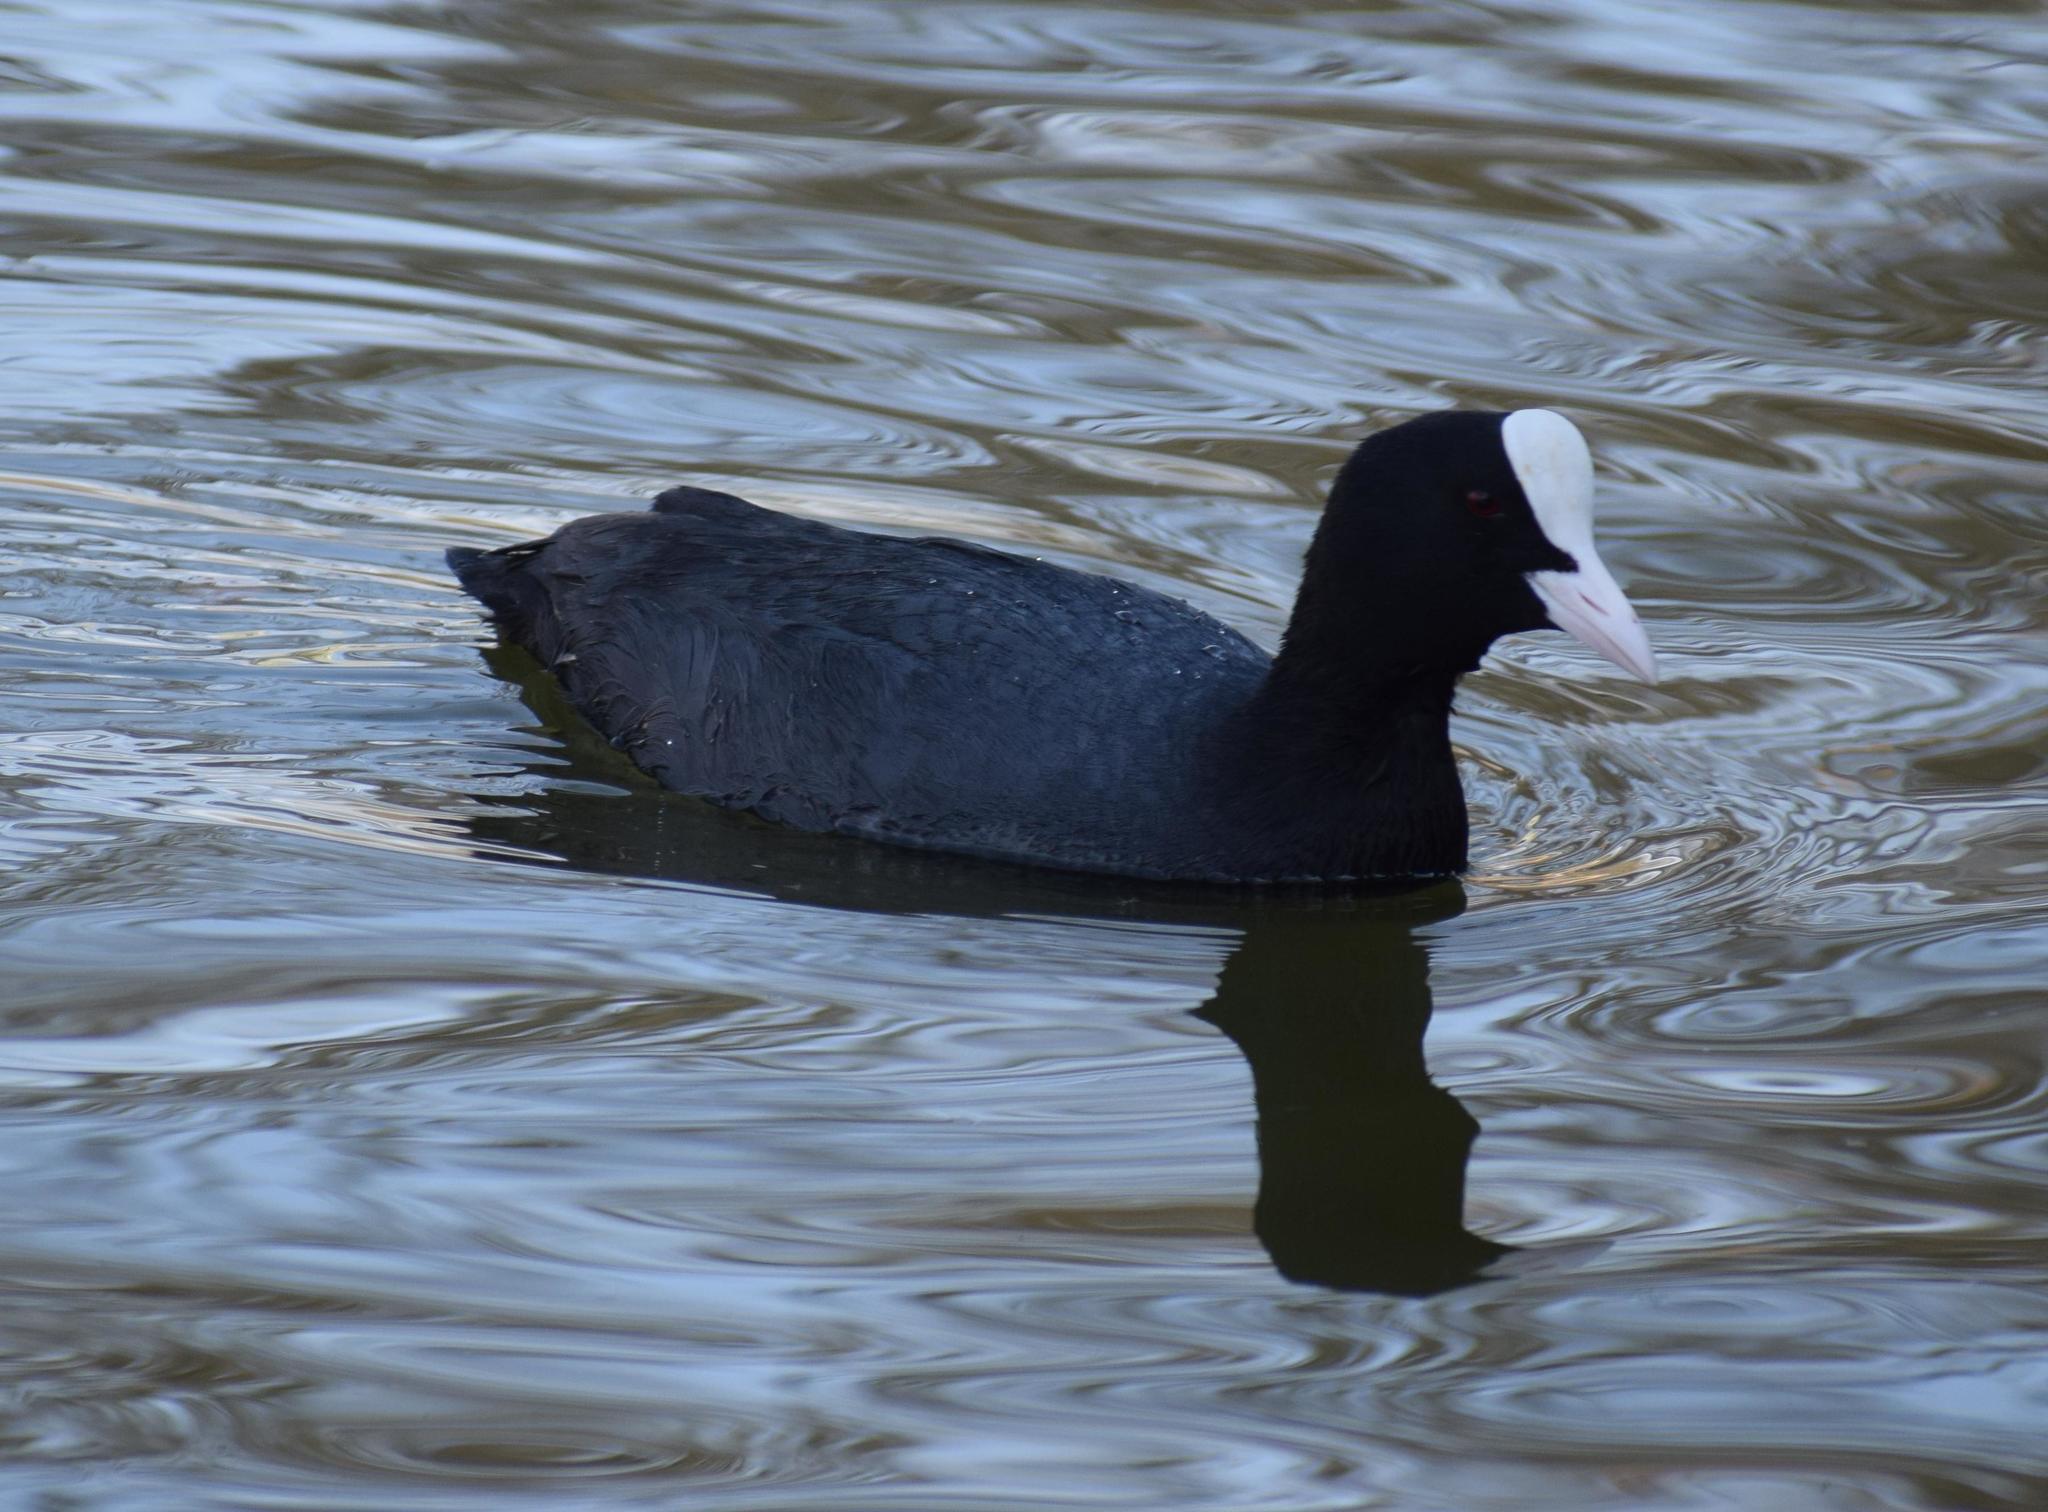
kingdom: Animalia
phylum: Chordata
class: Aves
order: Gruiformes
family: Rallidae
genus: Fulica
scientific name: Fulica atra
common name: Eurasian coot
